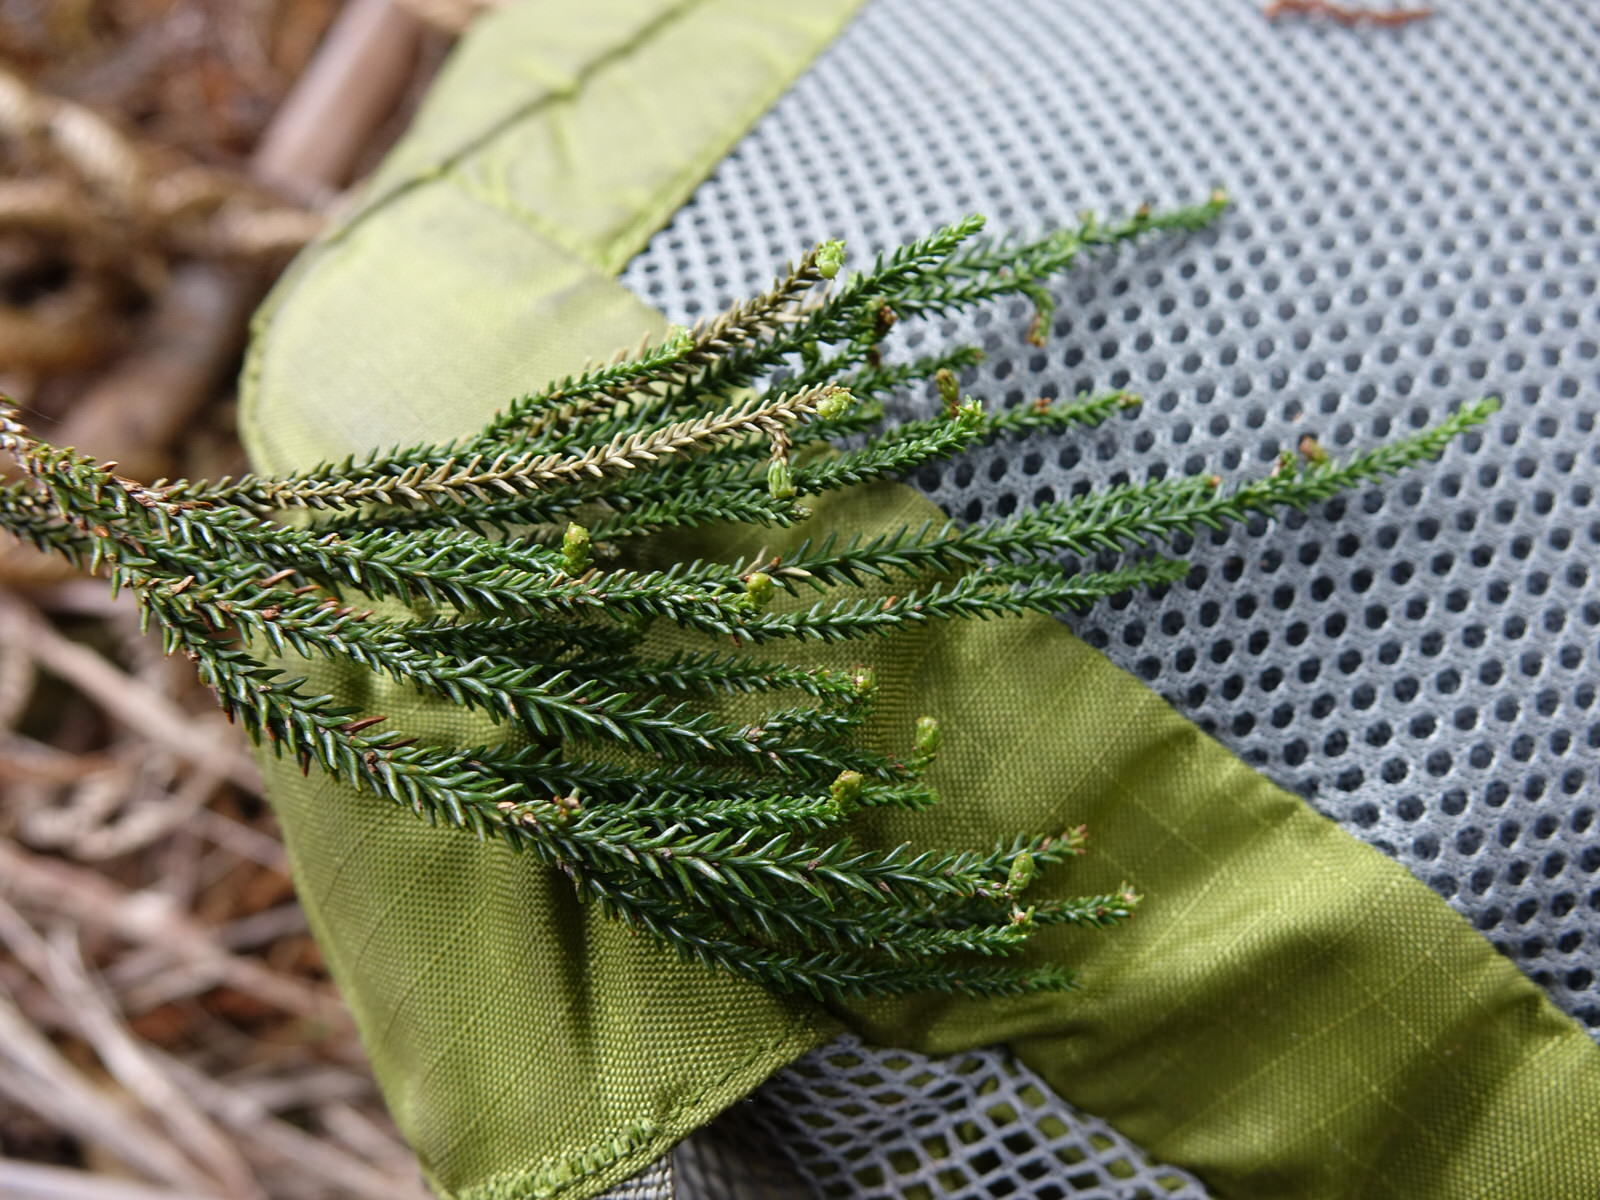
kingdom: Plantae
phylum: Tracheophyta
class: Pinopsida
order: Pinales
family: Podocarpaceae
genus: Dacrydium
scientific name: Dacrydium cupressinum
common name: Red pine
